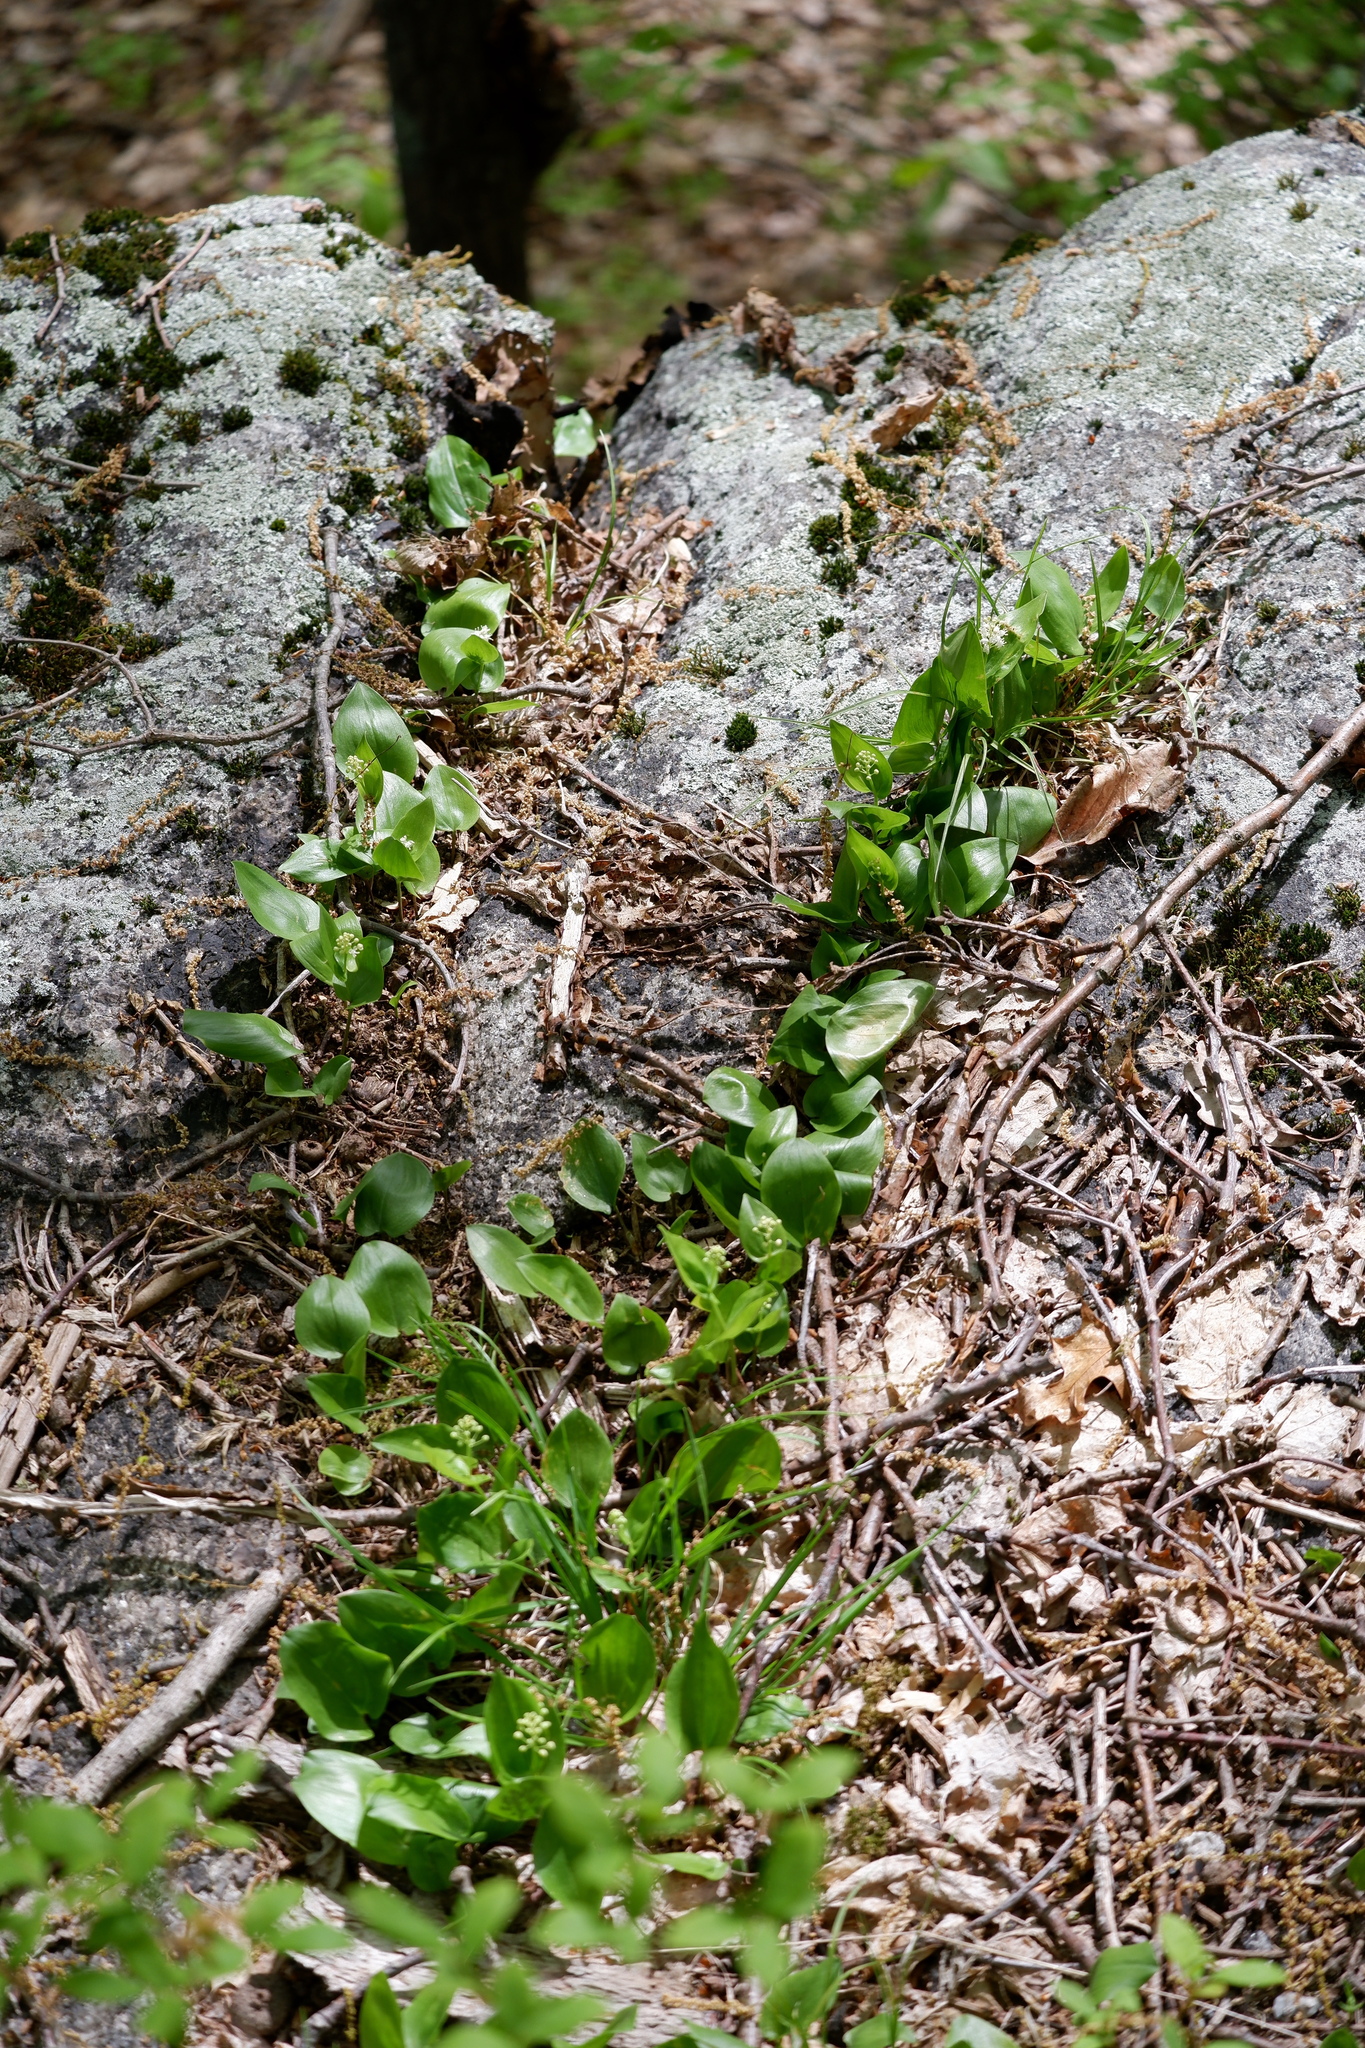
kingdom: Plantae
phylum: Tracheophyta
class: Liliopsida
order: Asparagales
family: Asparagaceae
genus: Maianthemum
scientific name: Maianthemum canadense
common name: False lily-of-the-valley
